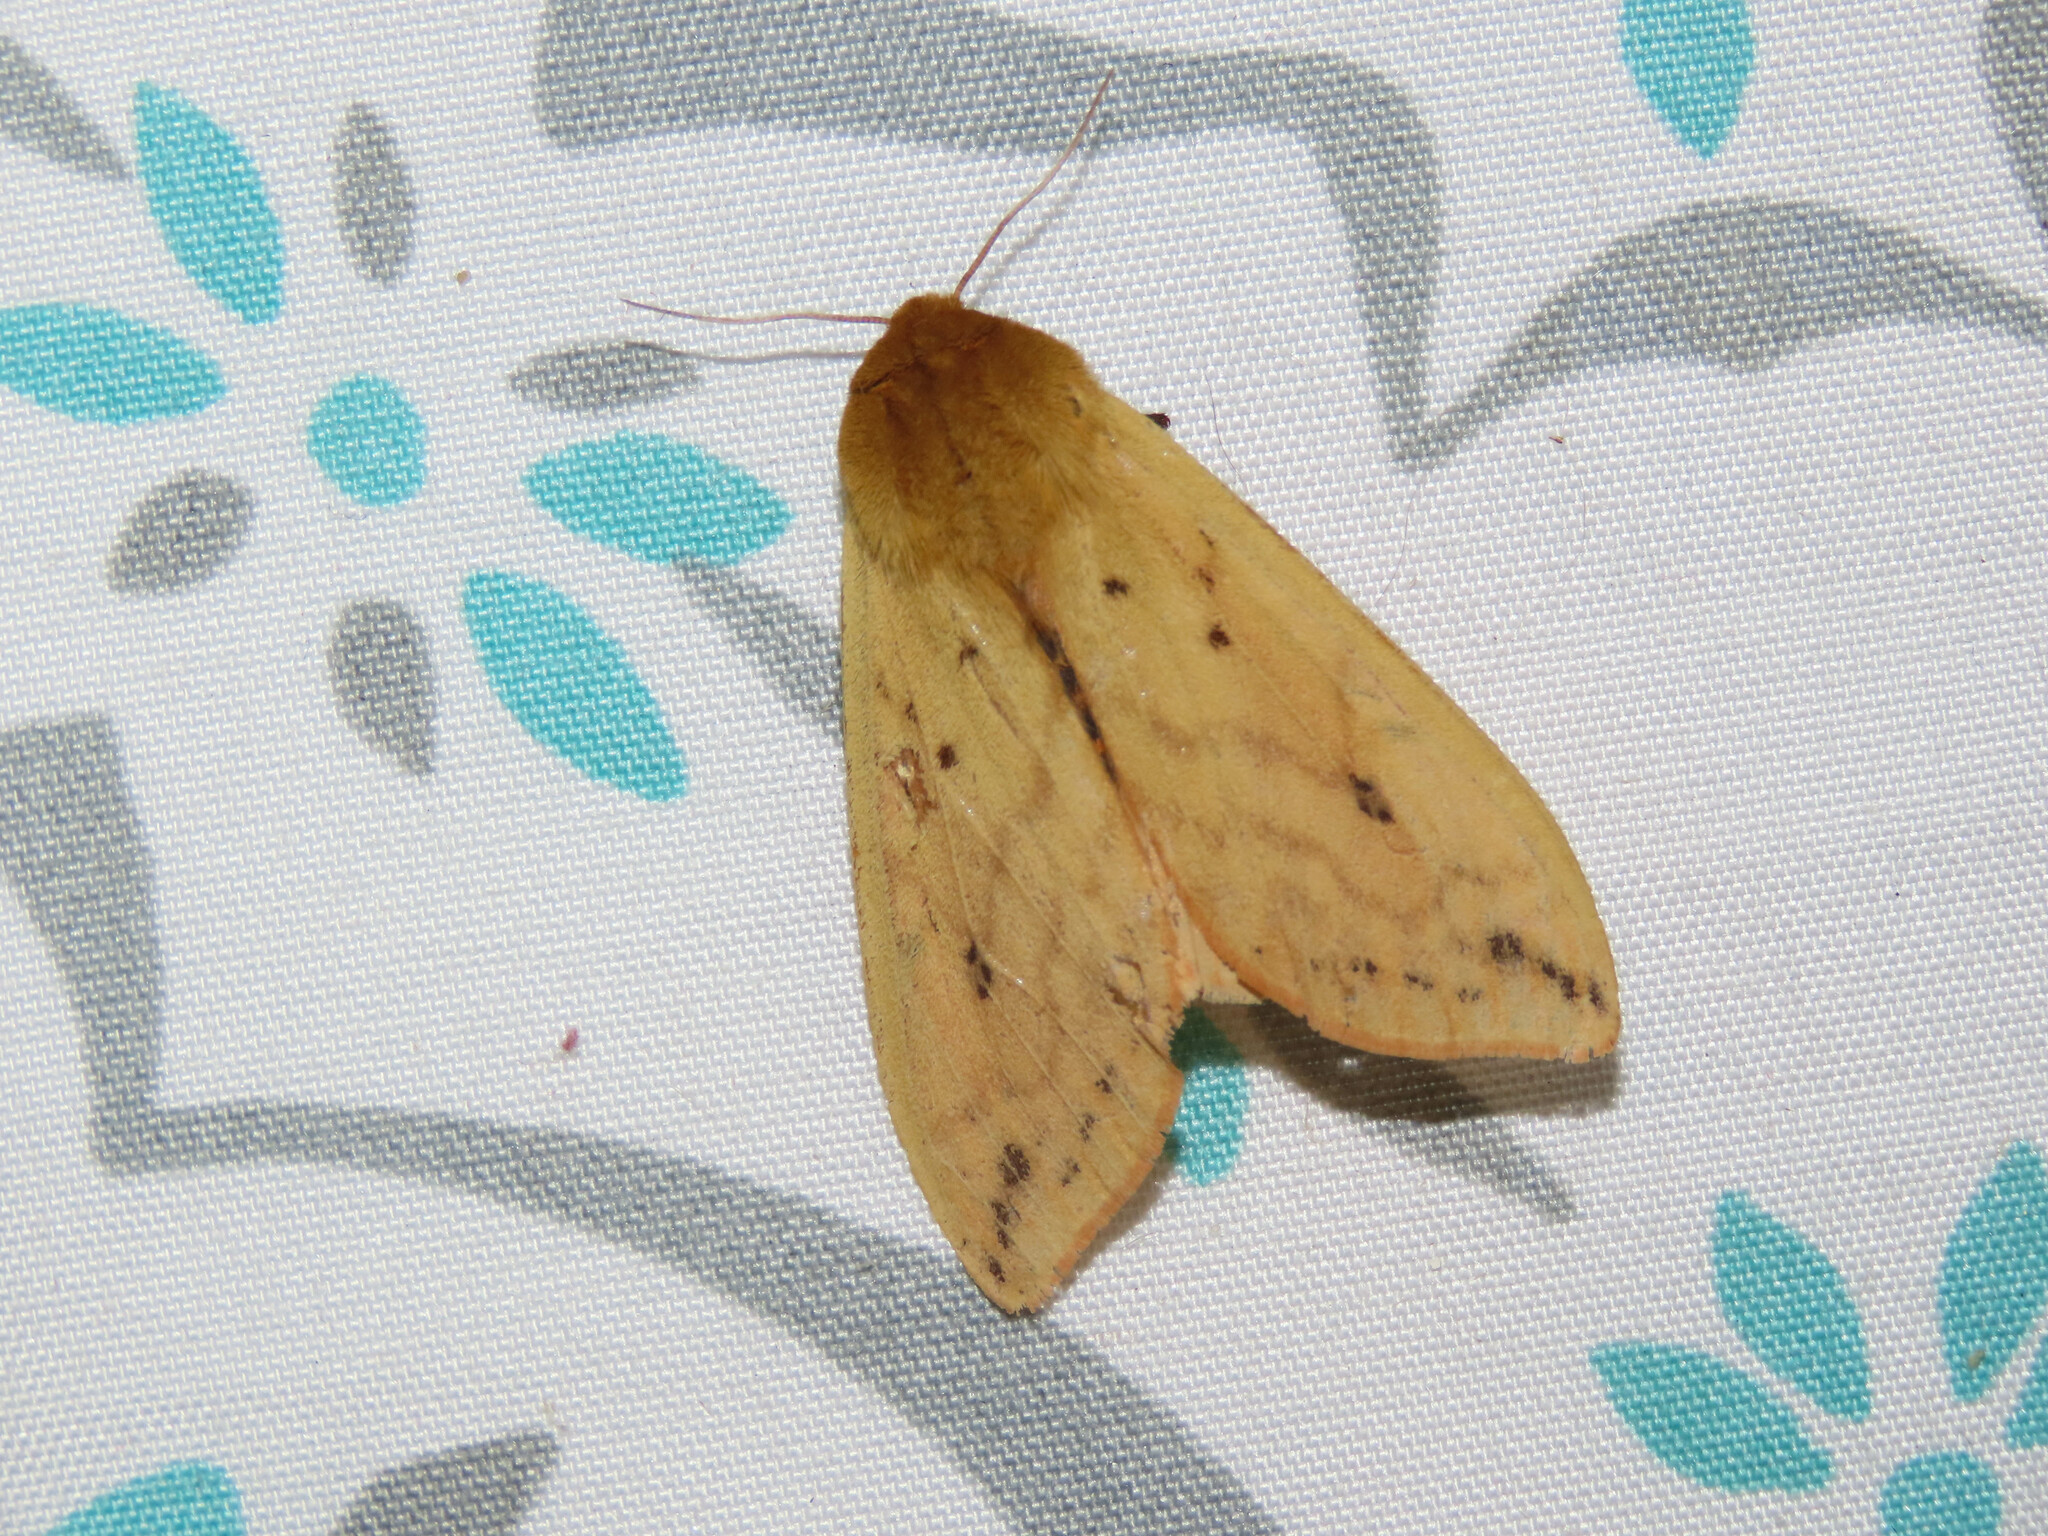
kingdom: Animalia
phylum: Arthropoda
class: Insecta
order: Lepidoptera
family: Erebidae
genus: Pyrrharctia
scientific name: Pyrrharctia isabella
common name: Isabella tiger moth
